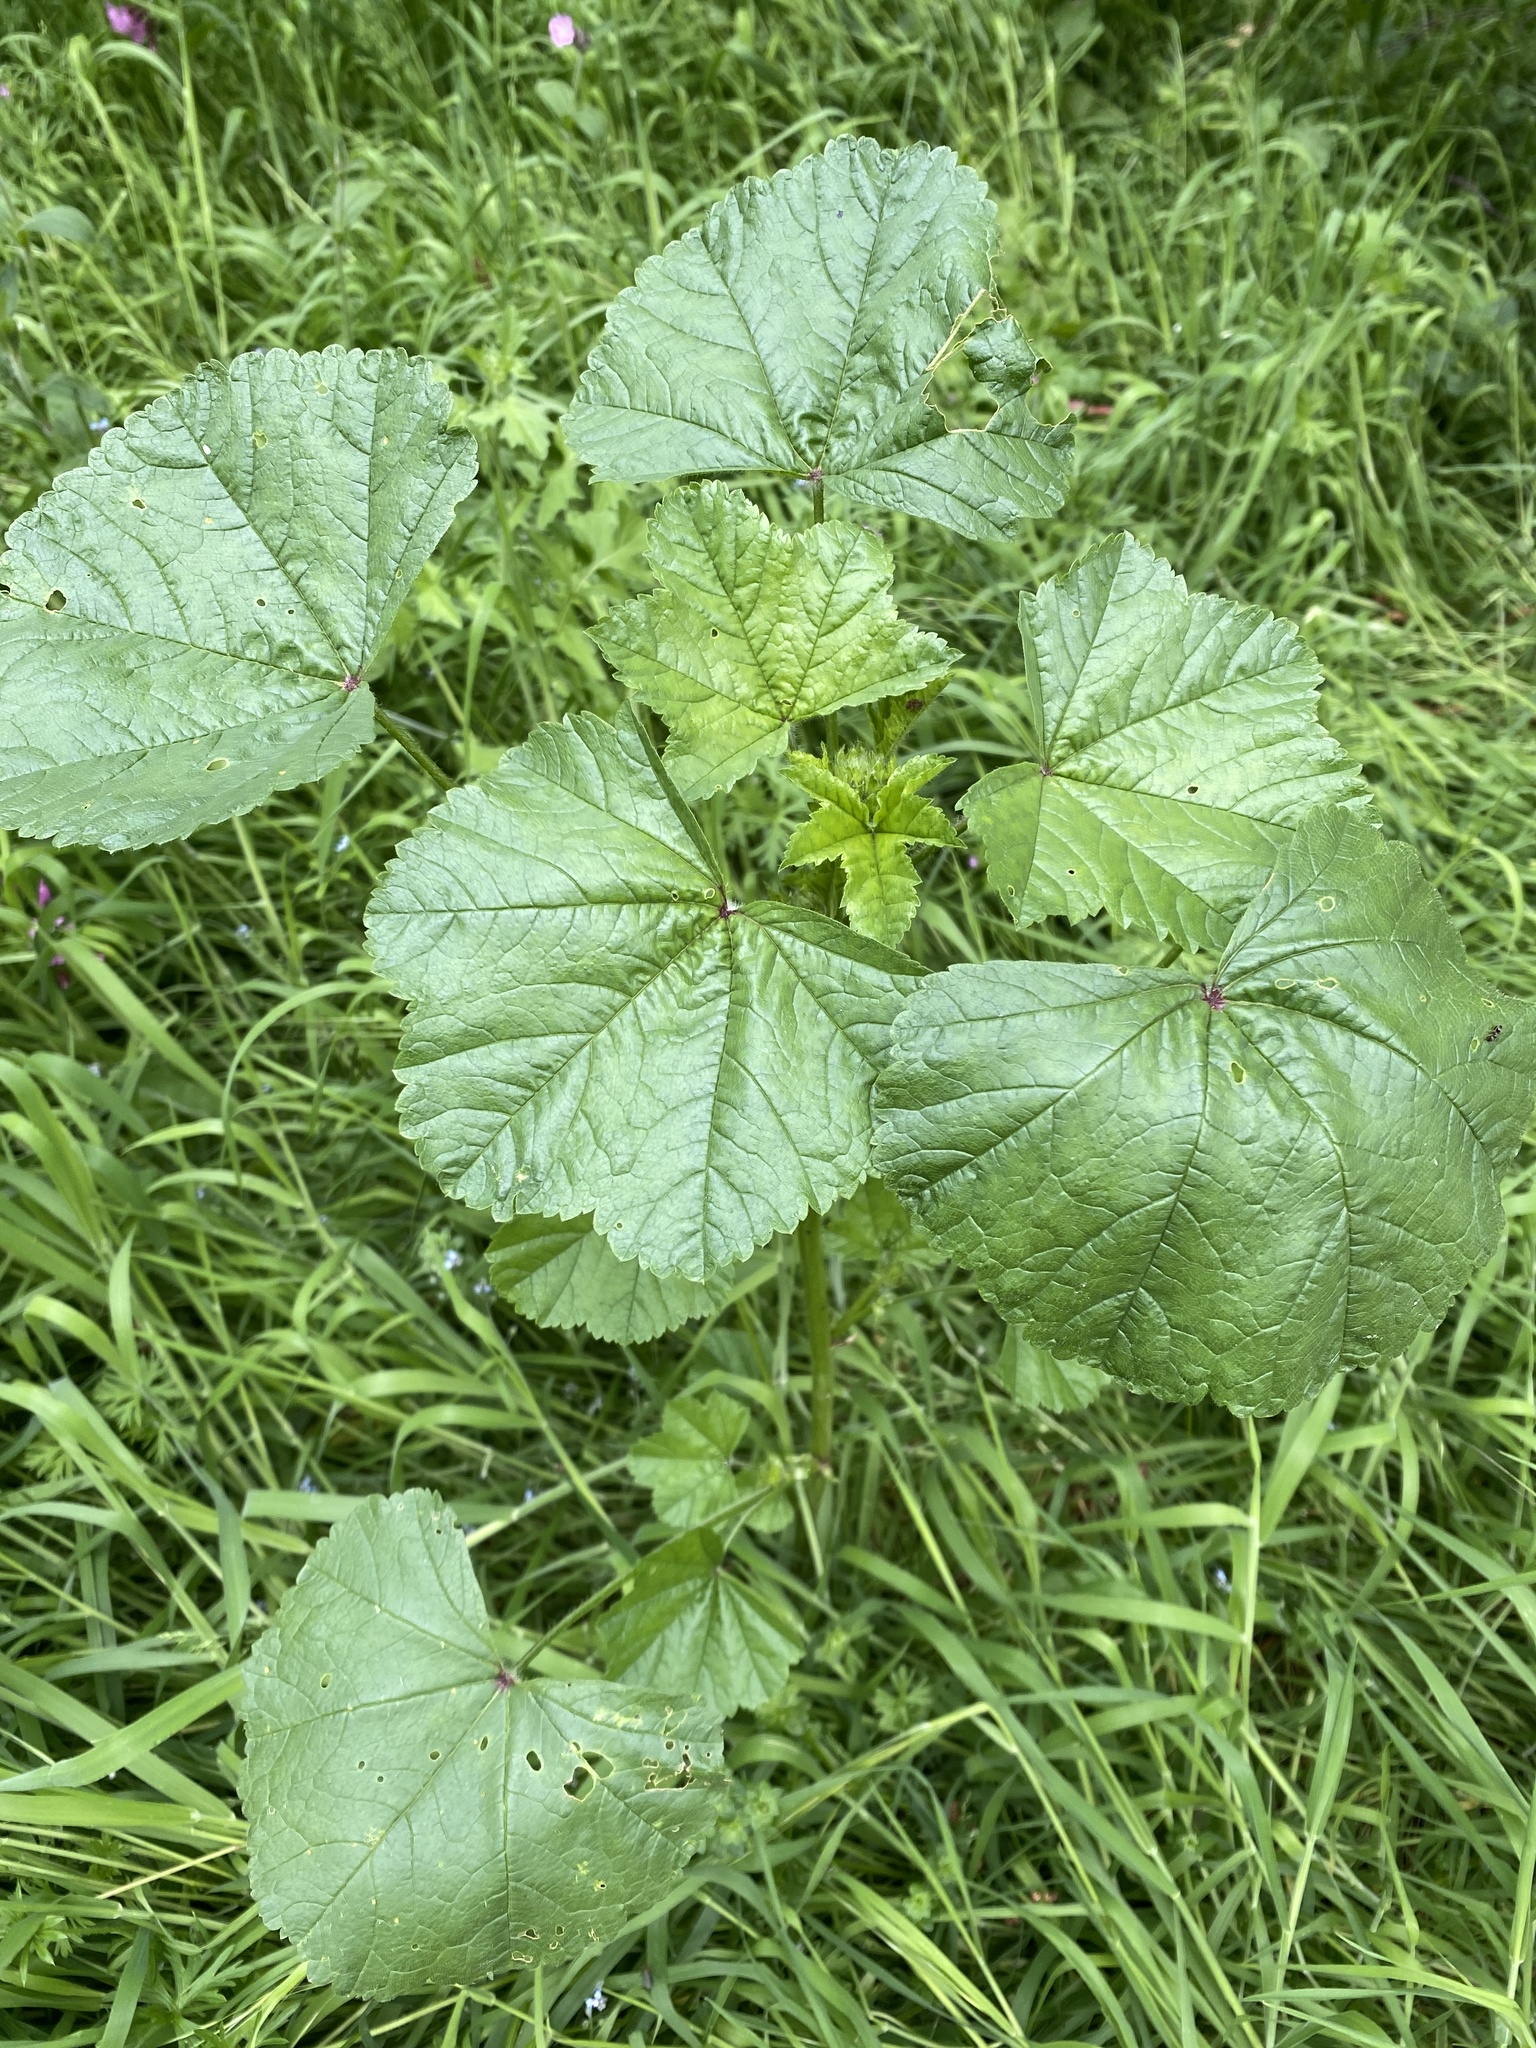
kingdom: Plantae
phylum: Tracheophyta
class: Magnoliopsida
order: Malvales
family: Malvaceae
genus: Malva
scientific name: Malva sylvestris
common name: Common mallow
